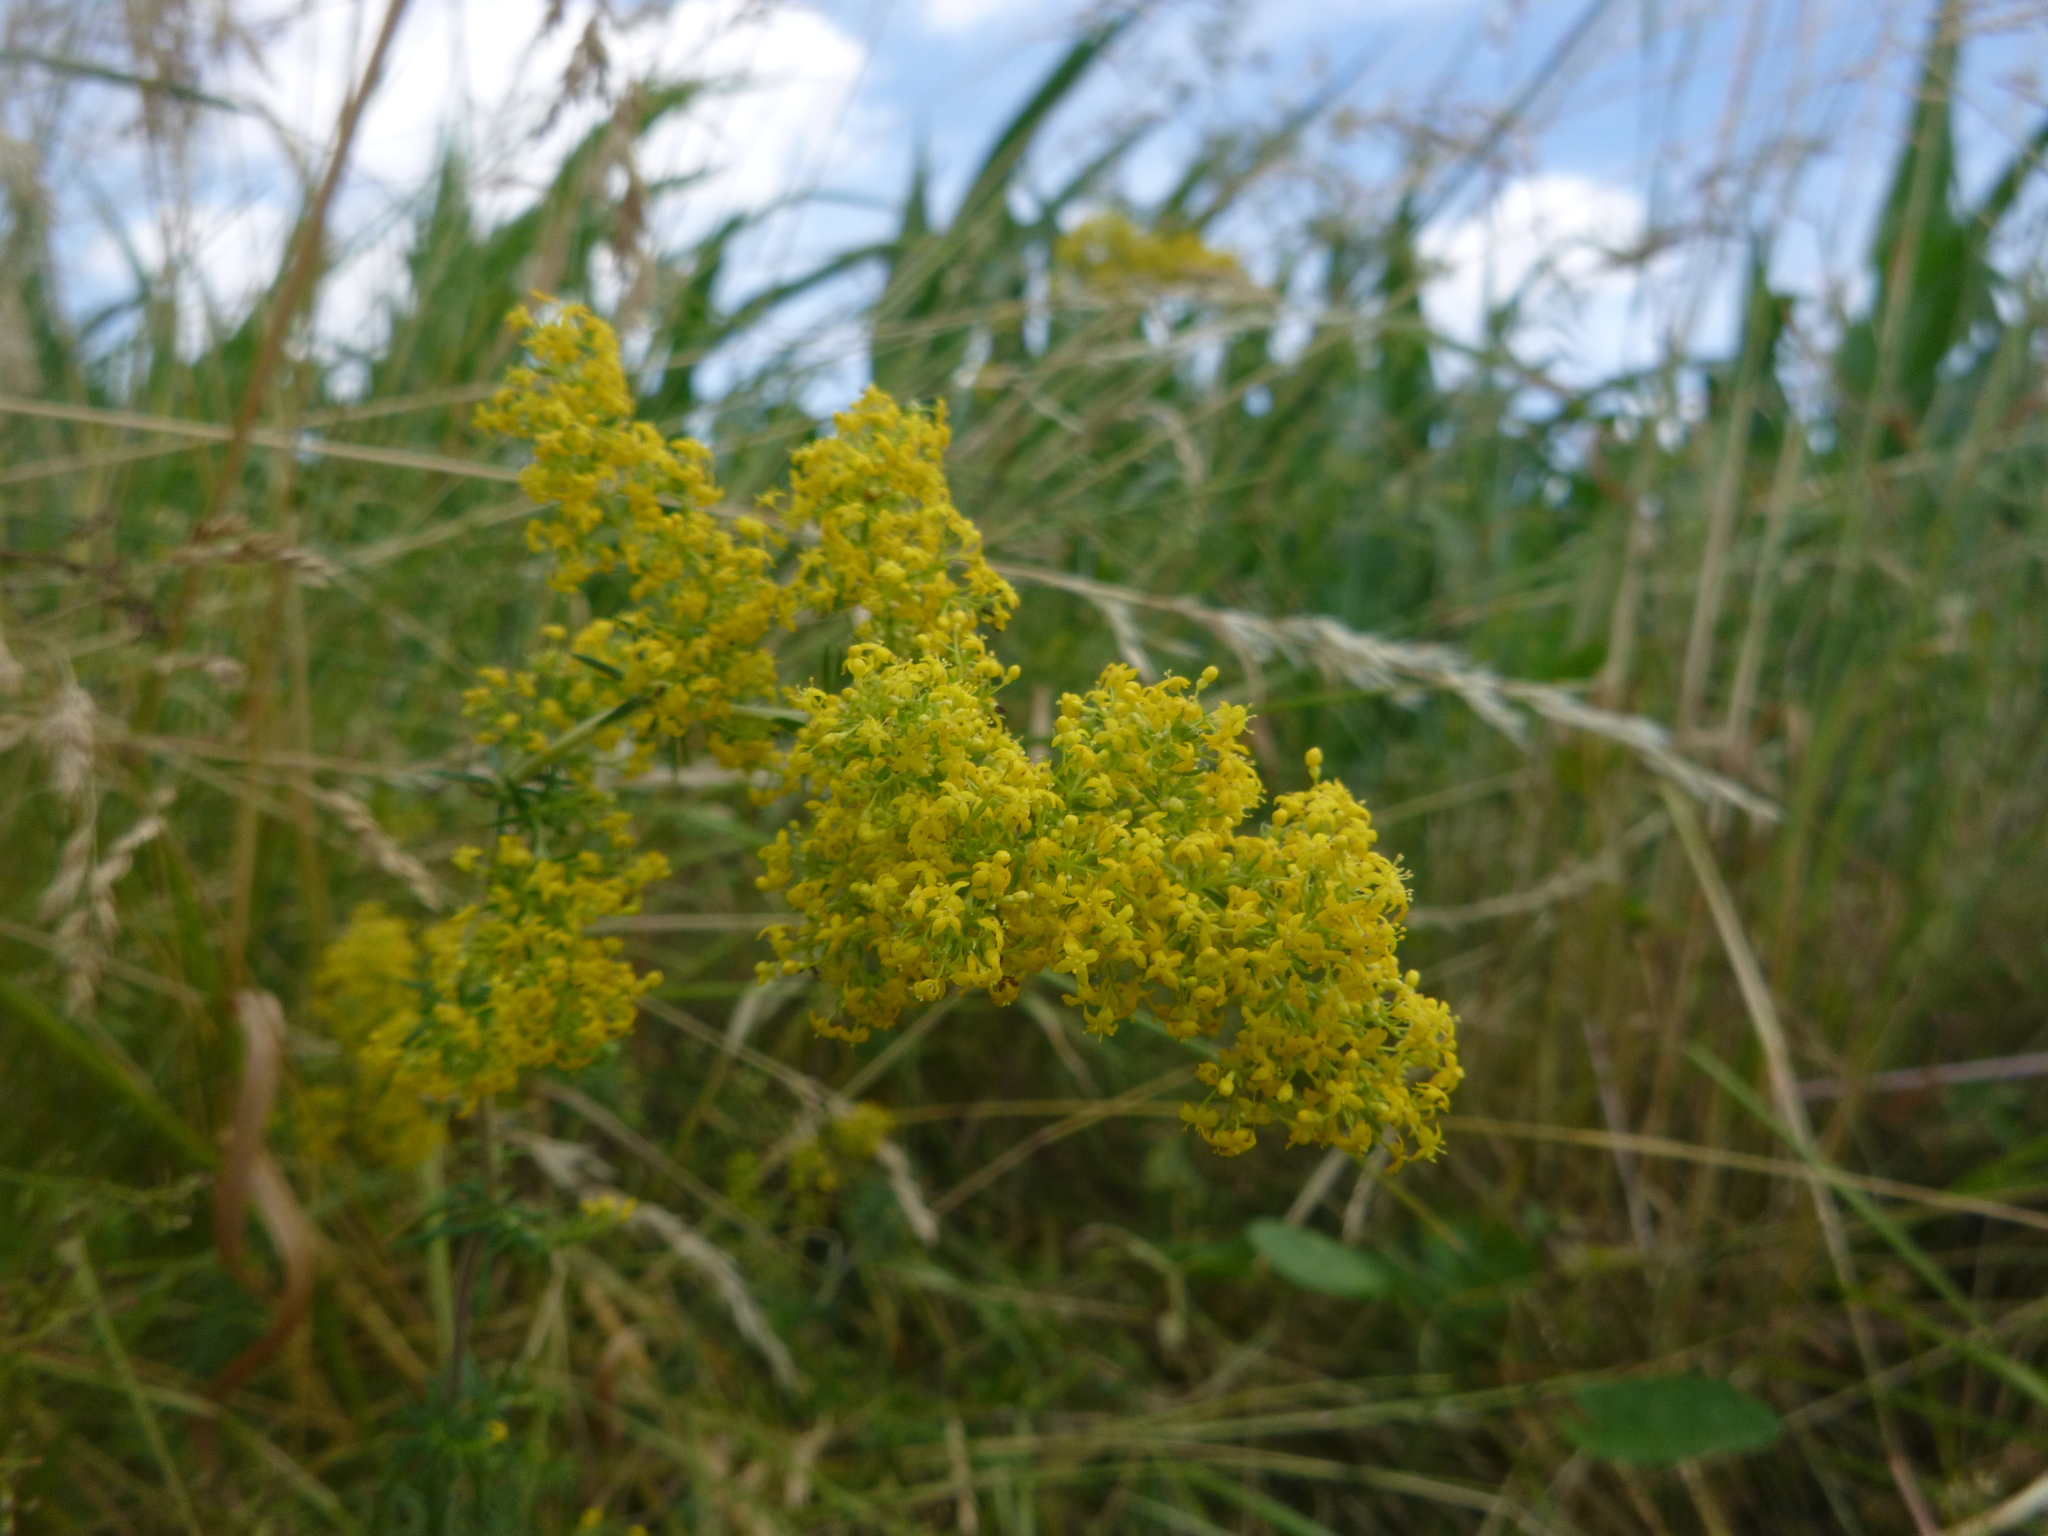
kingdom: Plantae
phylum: Tracheophyta
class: Magnoliopsida
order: Gentianales
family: Rubiaceae
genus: Galium
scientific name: Galium verum
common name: Lady's bedstraw
